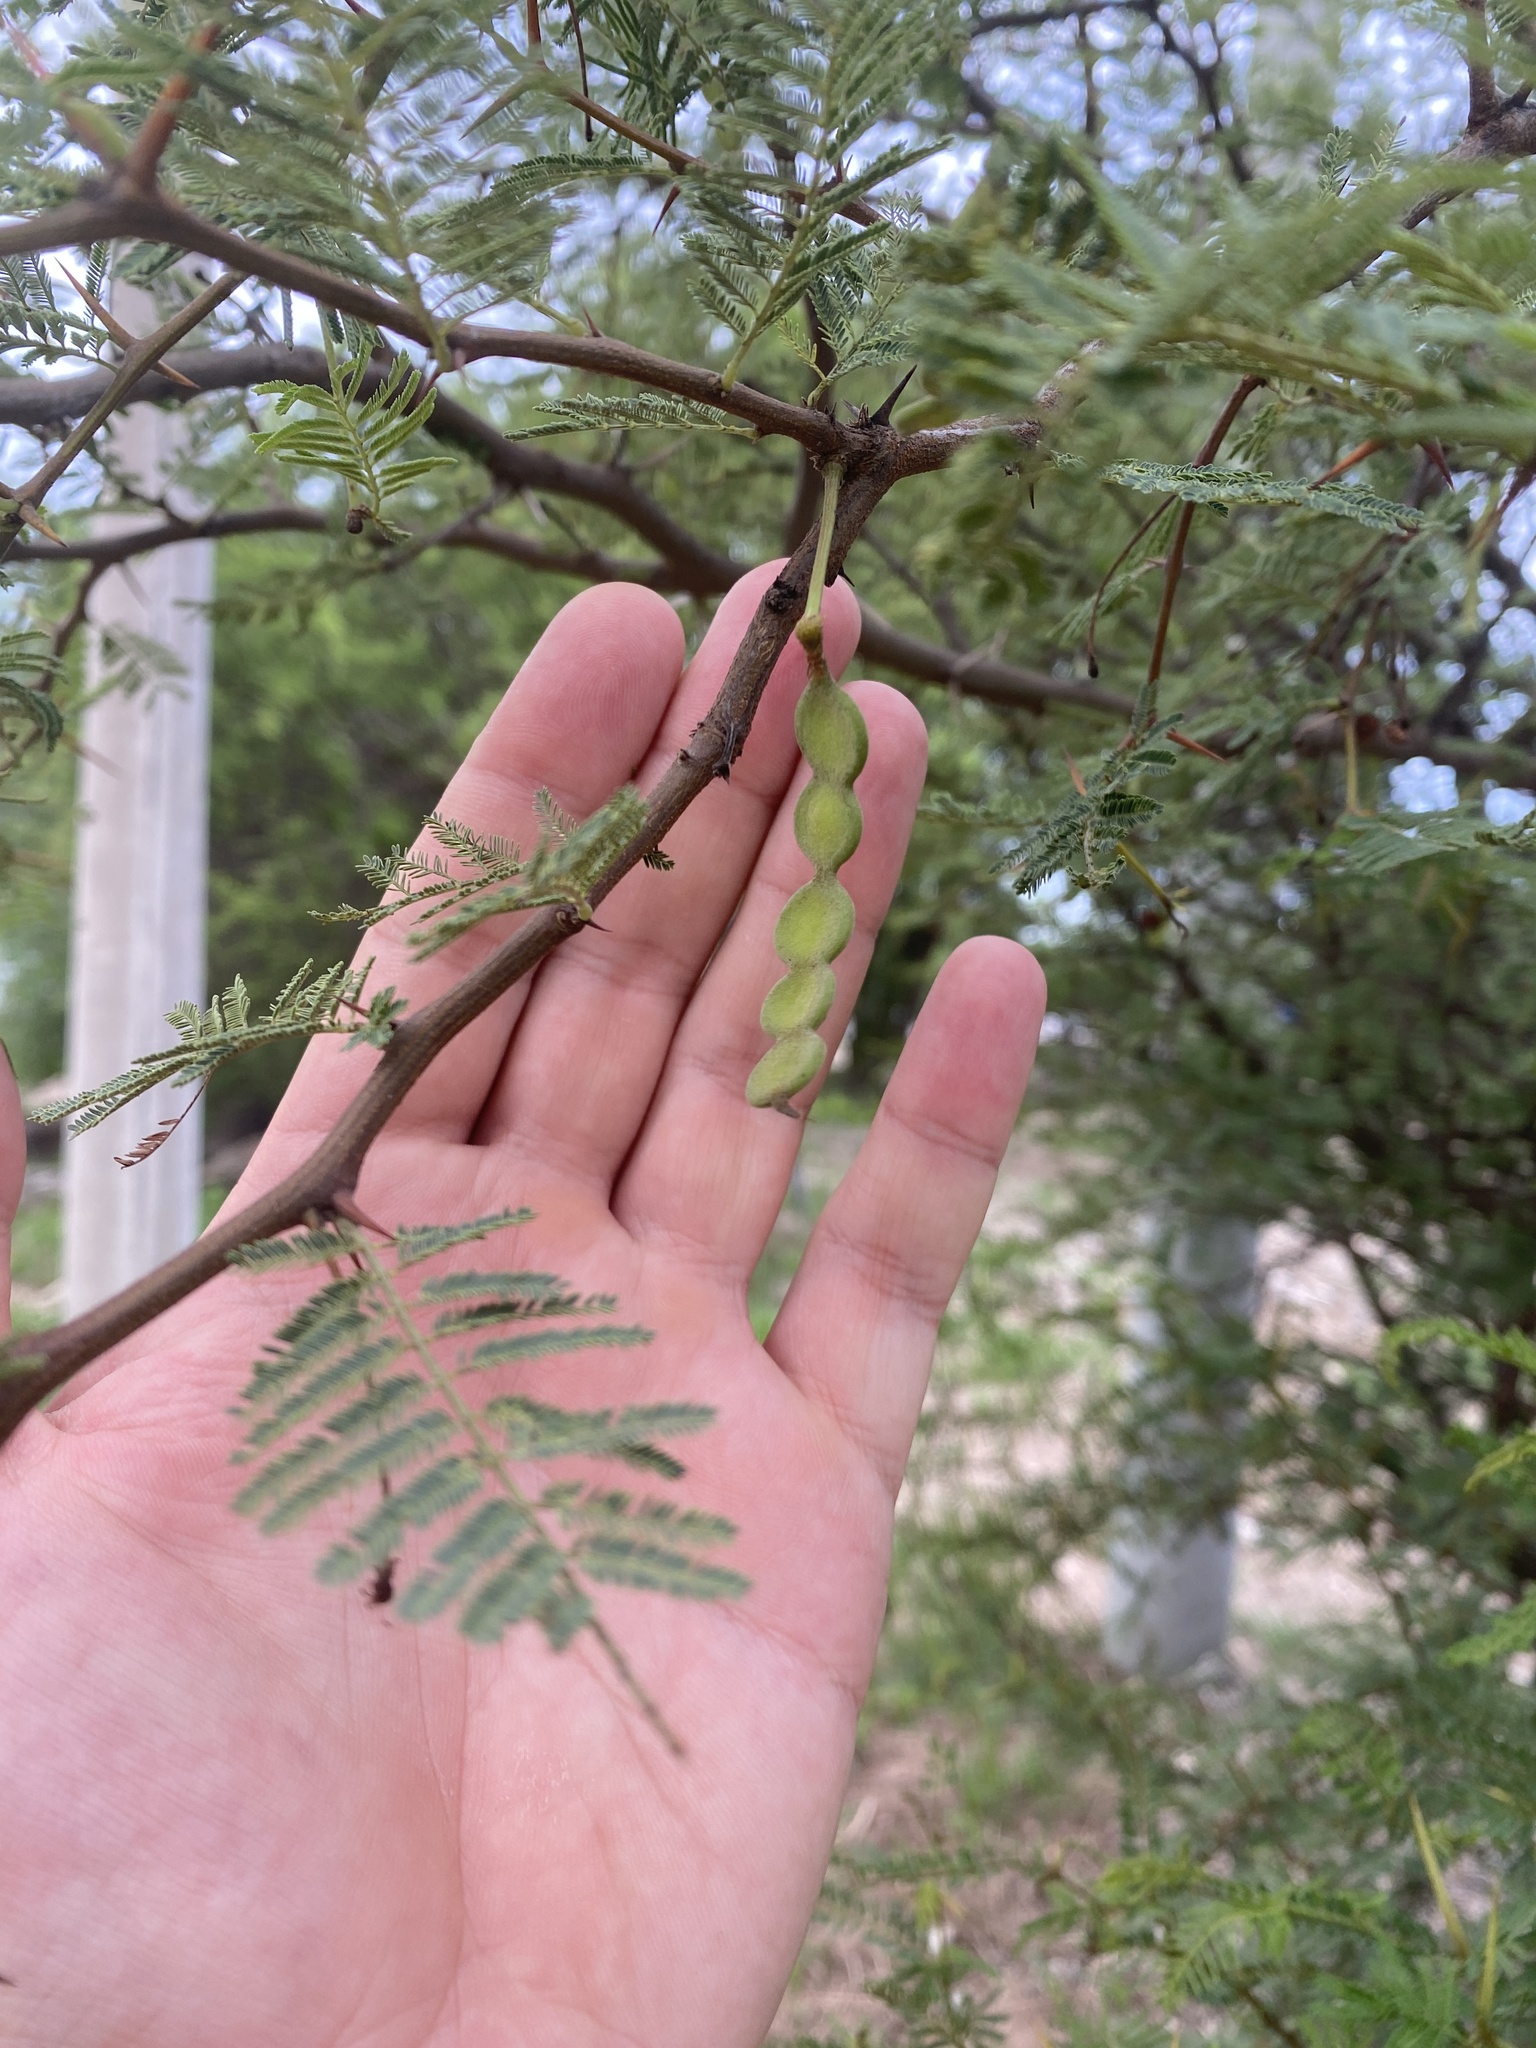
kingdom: Plantae
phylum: Tracheophyta
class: Magnoliopsida
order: Fabales
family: Fabaceae
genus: Vachellia
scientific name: Vachellia aroma
